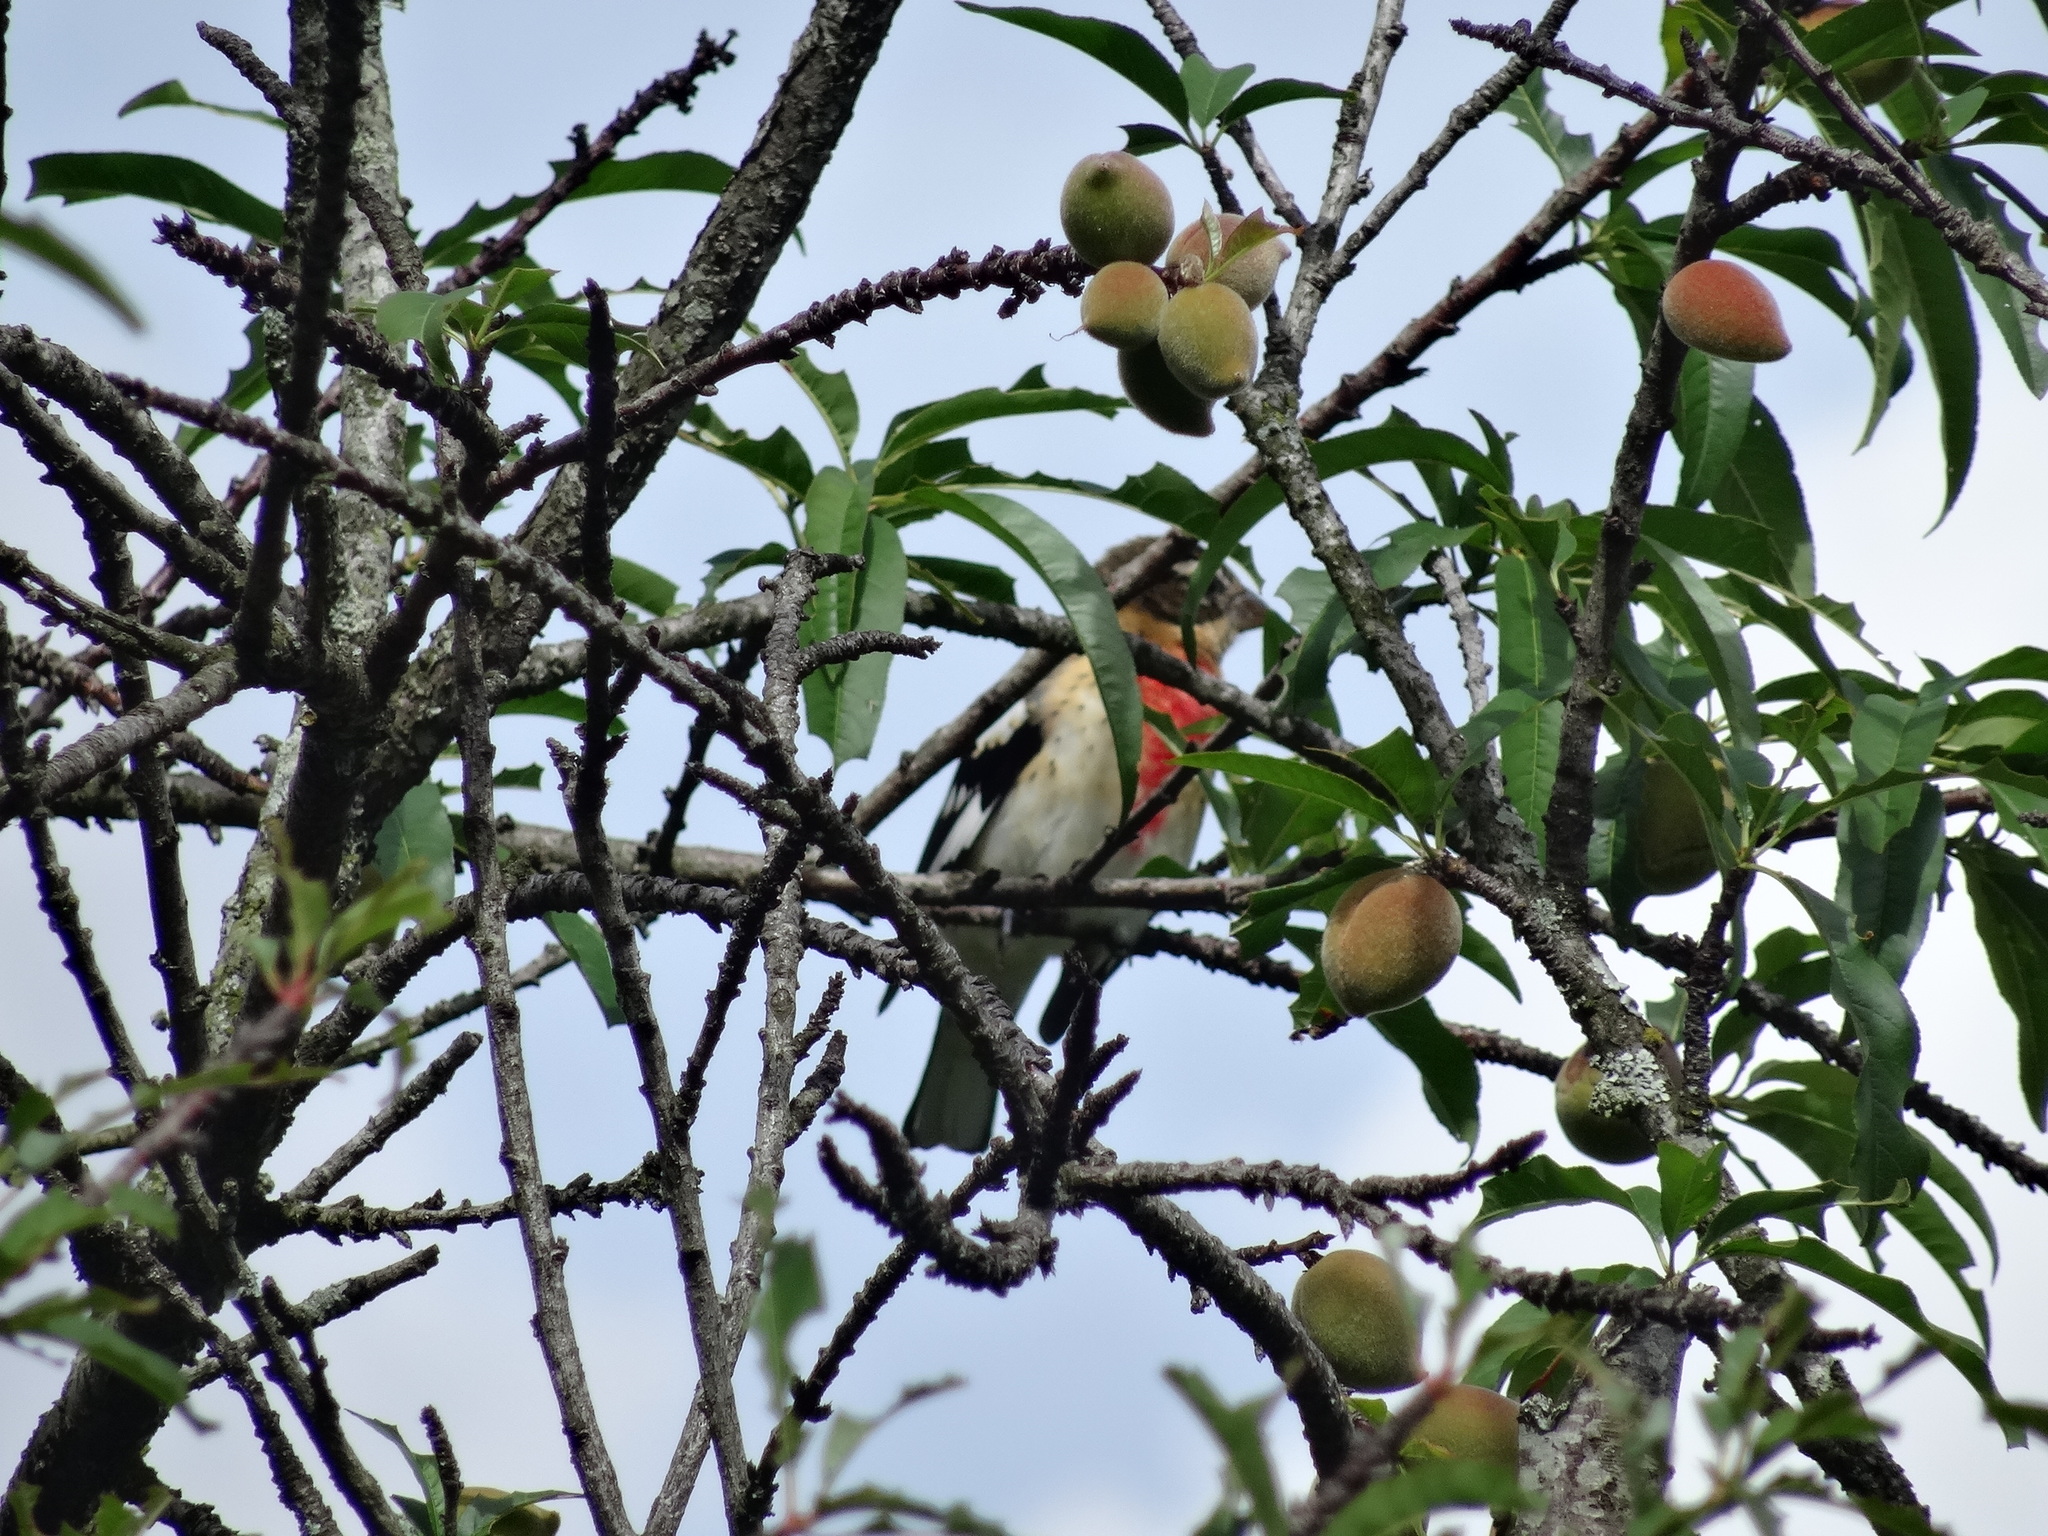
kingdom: Animalia
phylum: Chordata
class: Aves
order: Passeriformes
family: Cardinalidae
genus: Pheucticus
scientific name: Pheucticus ludovicianus
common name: Rose-breasted grosbeak
